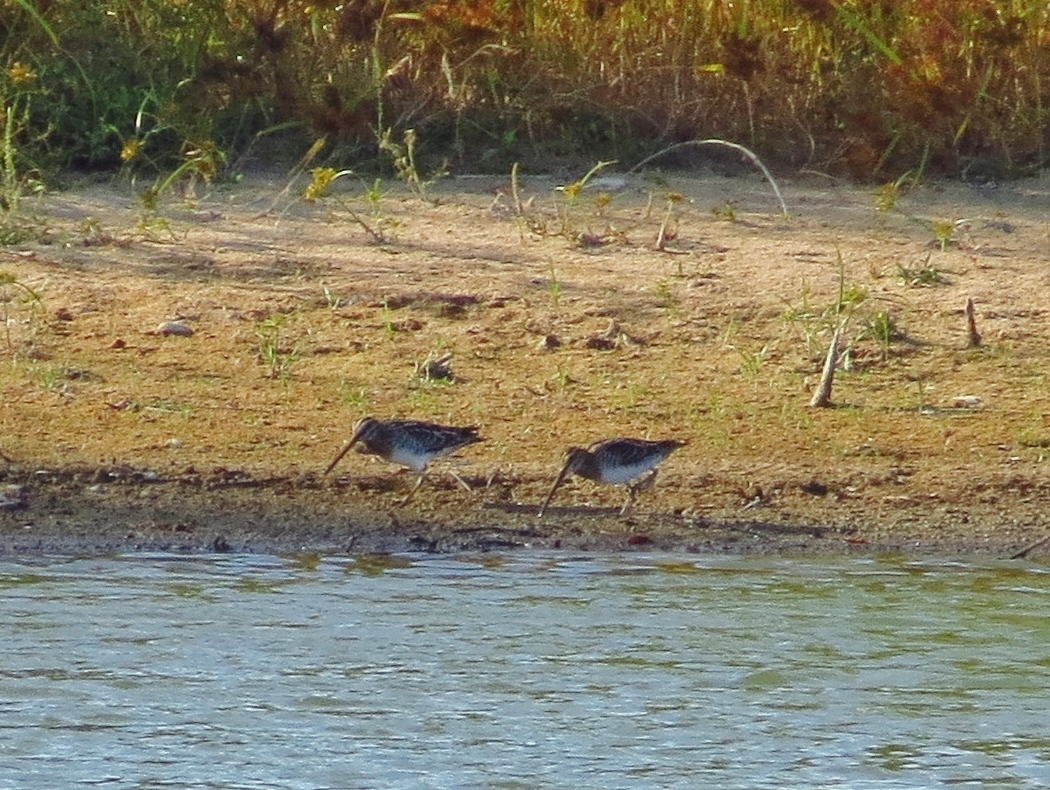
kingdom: Animalia
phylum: Chordata
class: Aves
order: Charadriiformes
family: Scolopacidae
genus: Gallinago
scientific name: Gallinago delicata
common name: Wilson's snipe
